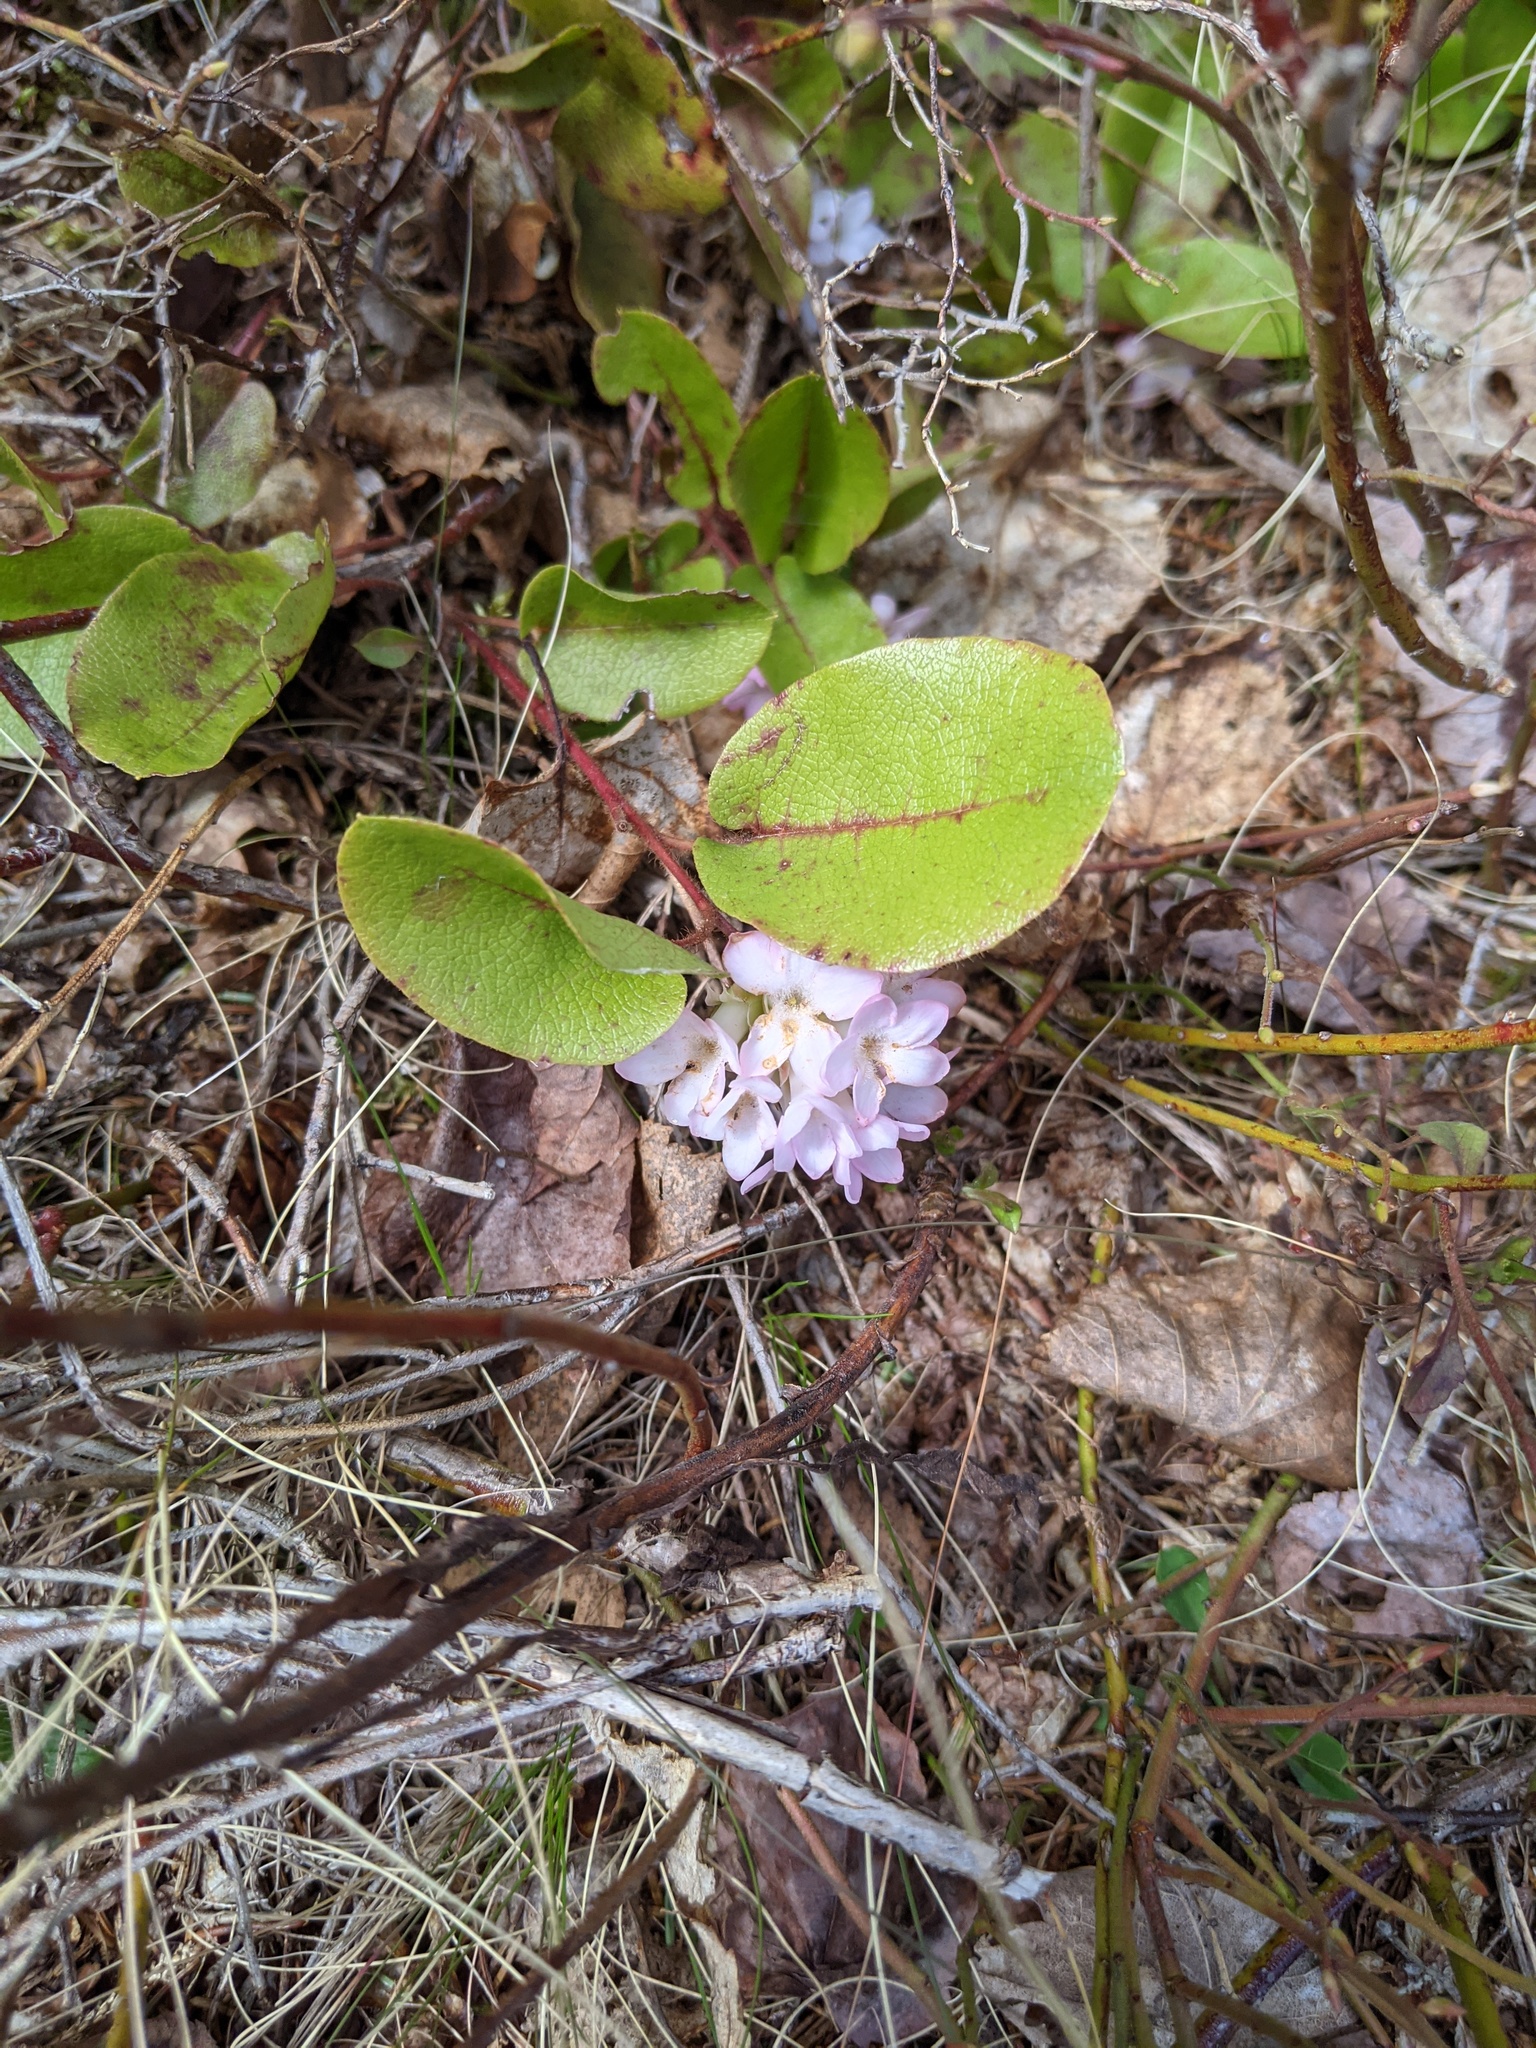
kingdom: Plantae
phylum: Tracheophyta
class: Magnoliopsida
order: Ericales
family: Ericaceae
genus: Epigaea
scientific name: Epigaea repens
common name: Gravelroot
